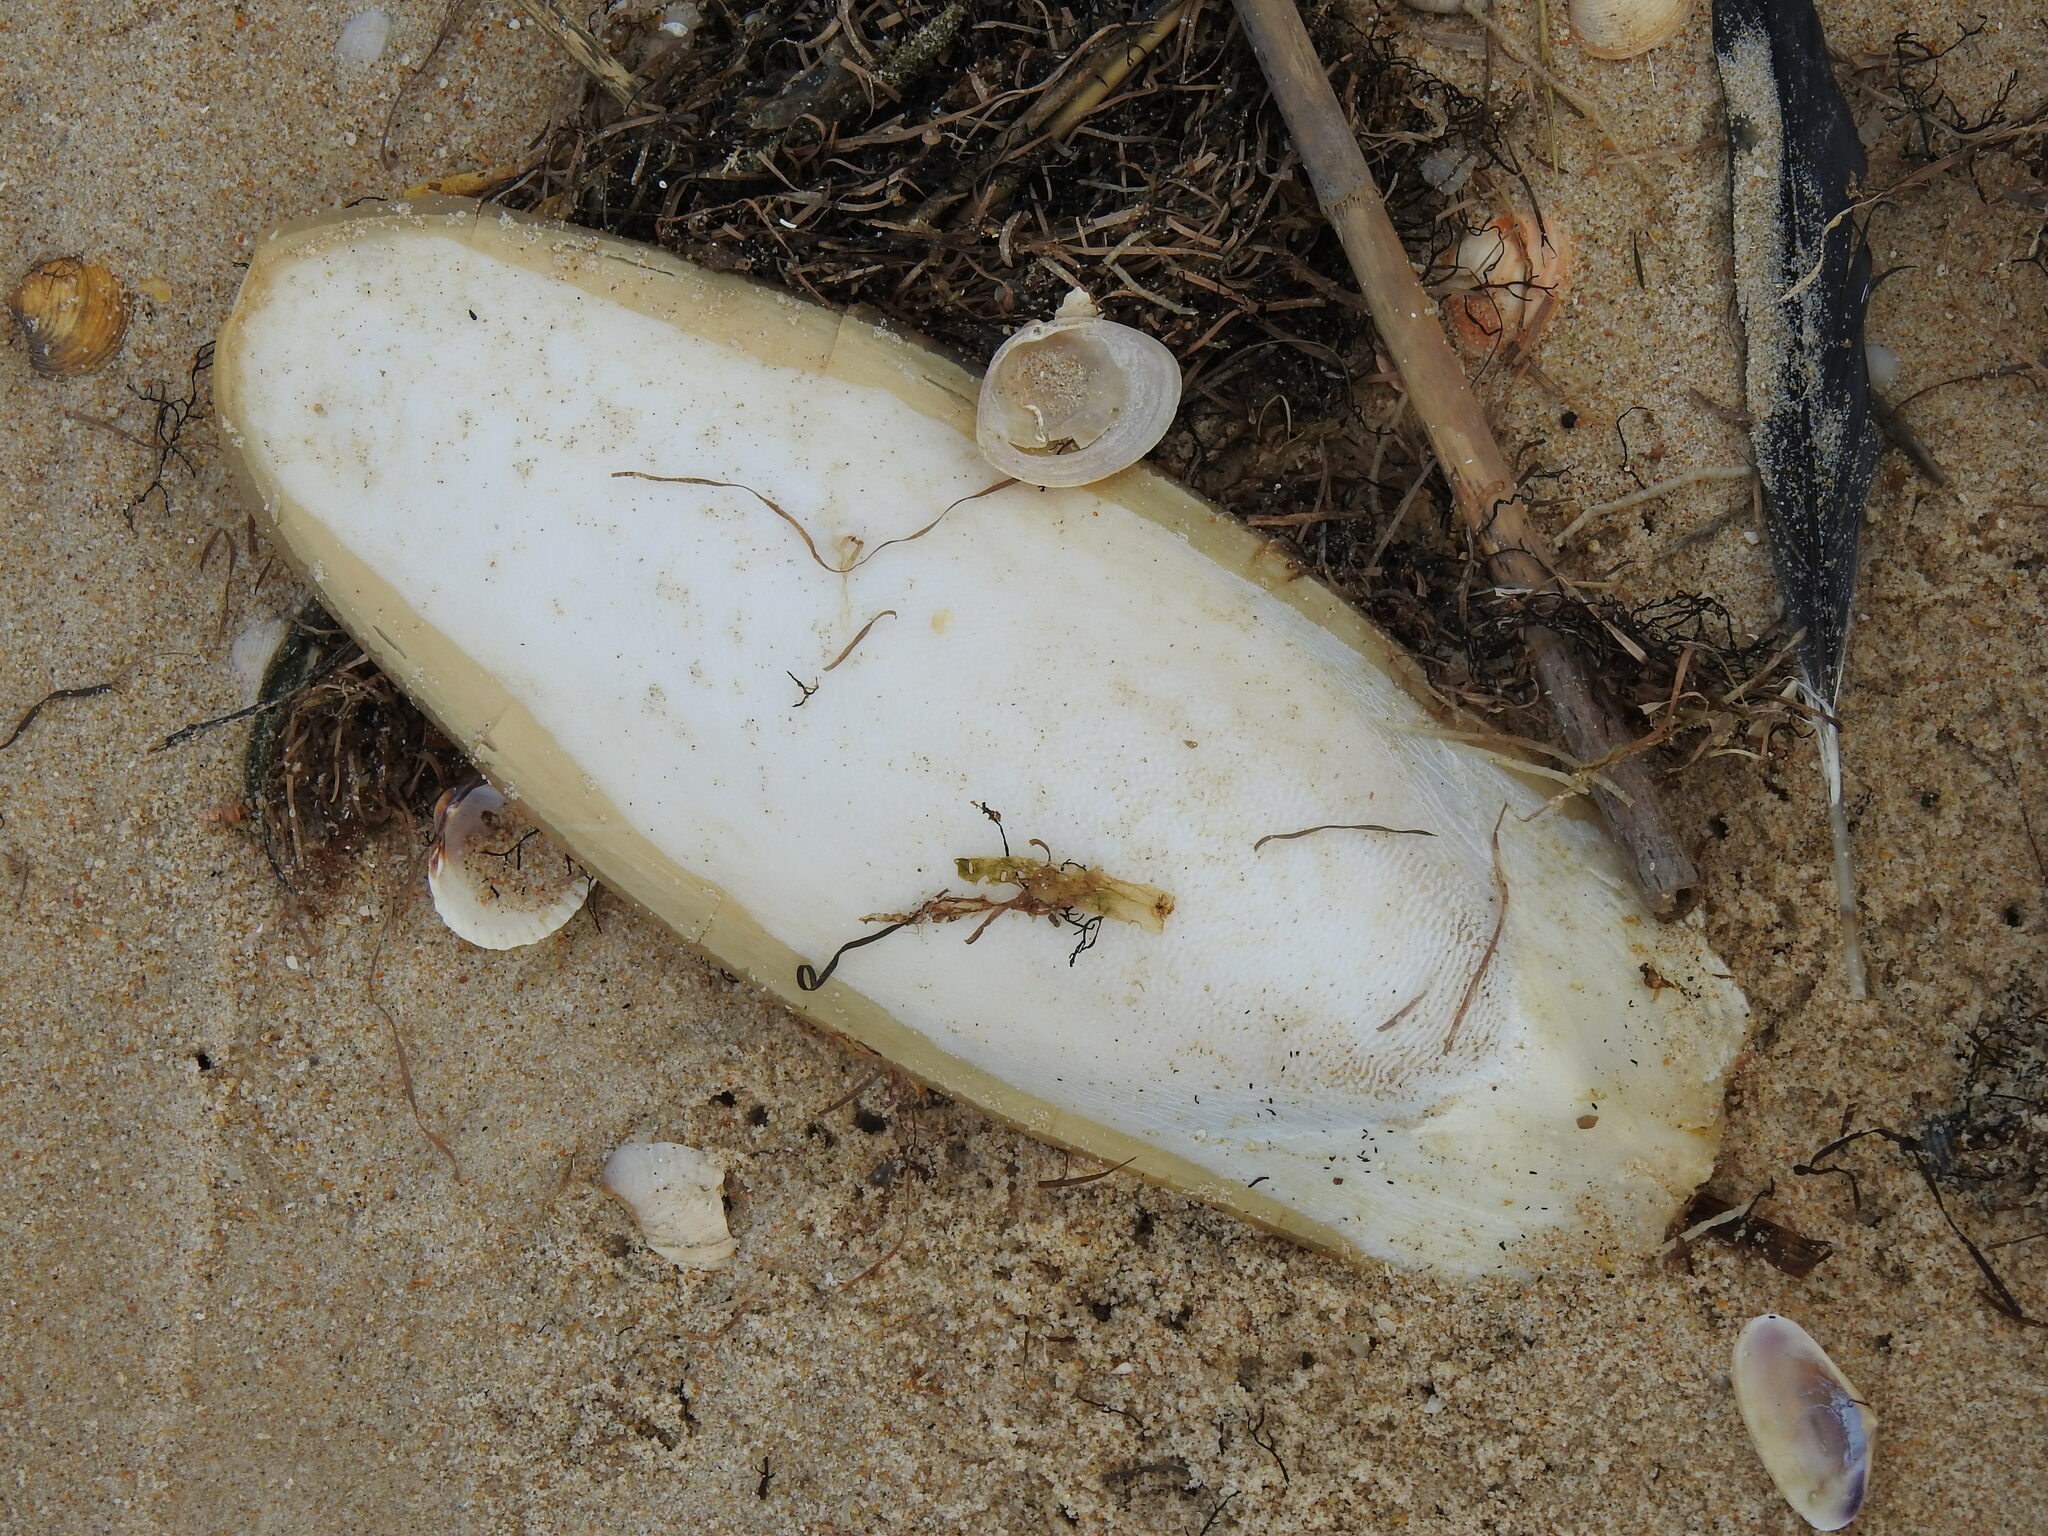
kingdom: Animalia
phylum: Mollusca
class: Cephalopoda
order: Sepiida
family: Sepiidae
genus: Sepia
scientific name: Sepia officinalis
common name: Common cuttlefish
